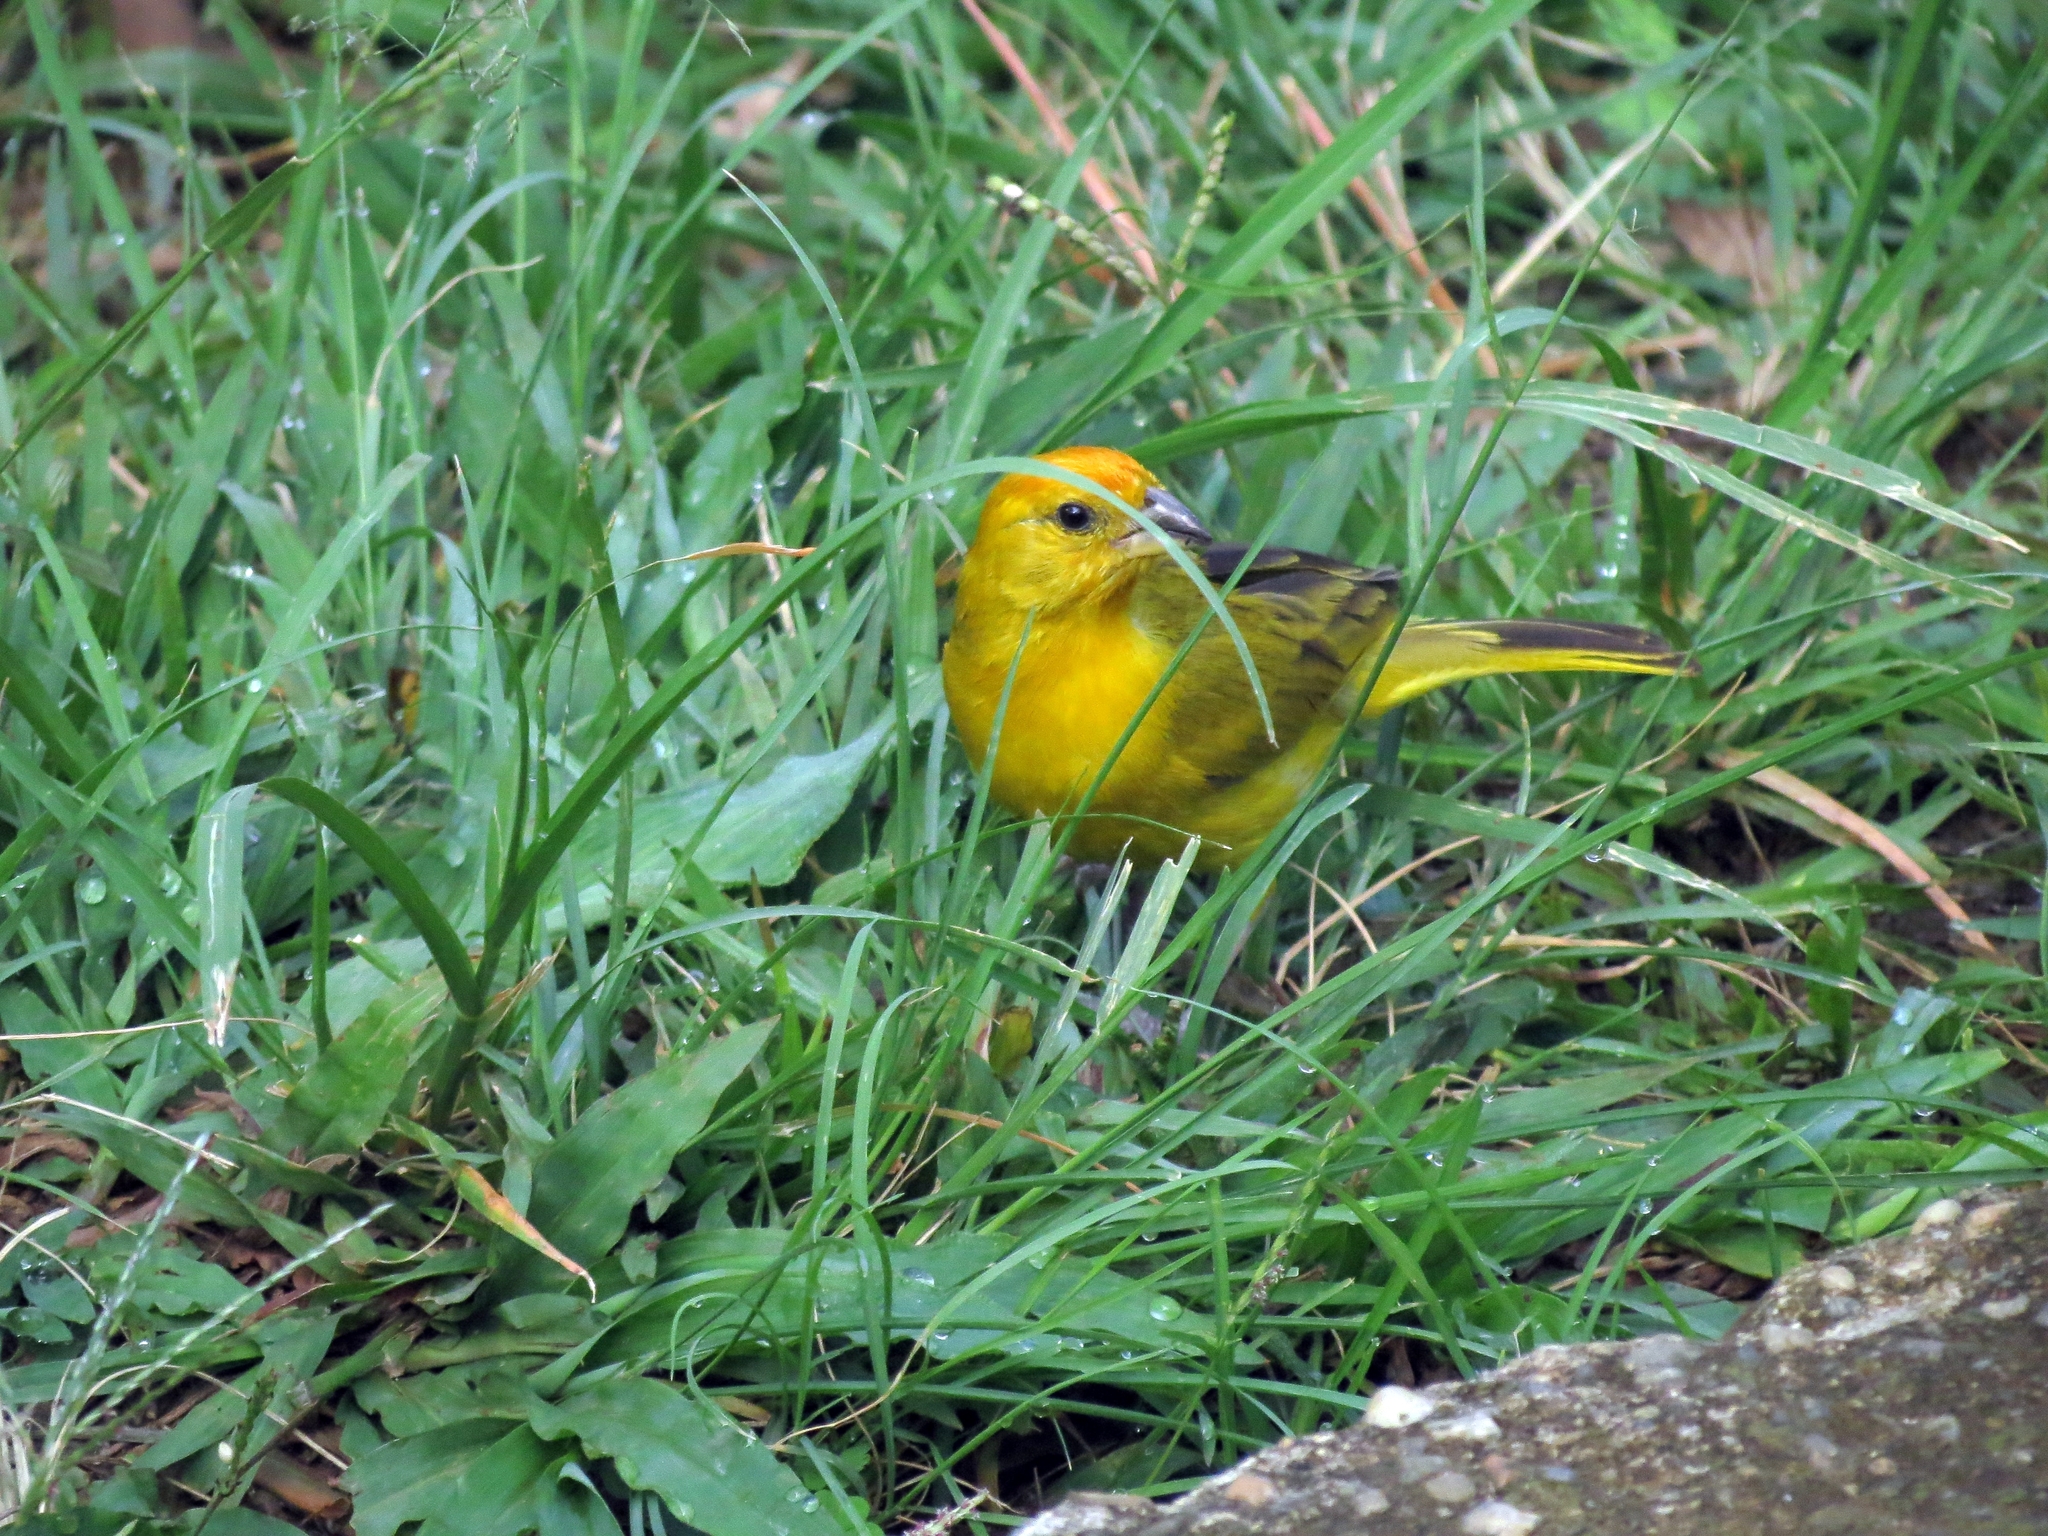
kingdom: Animalia
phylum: Chordata
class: Aves
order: Passeriformes
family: Thraupidae
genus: Sicalis
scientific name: Sicalis flaveola
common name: Saffron finch
